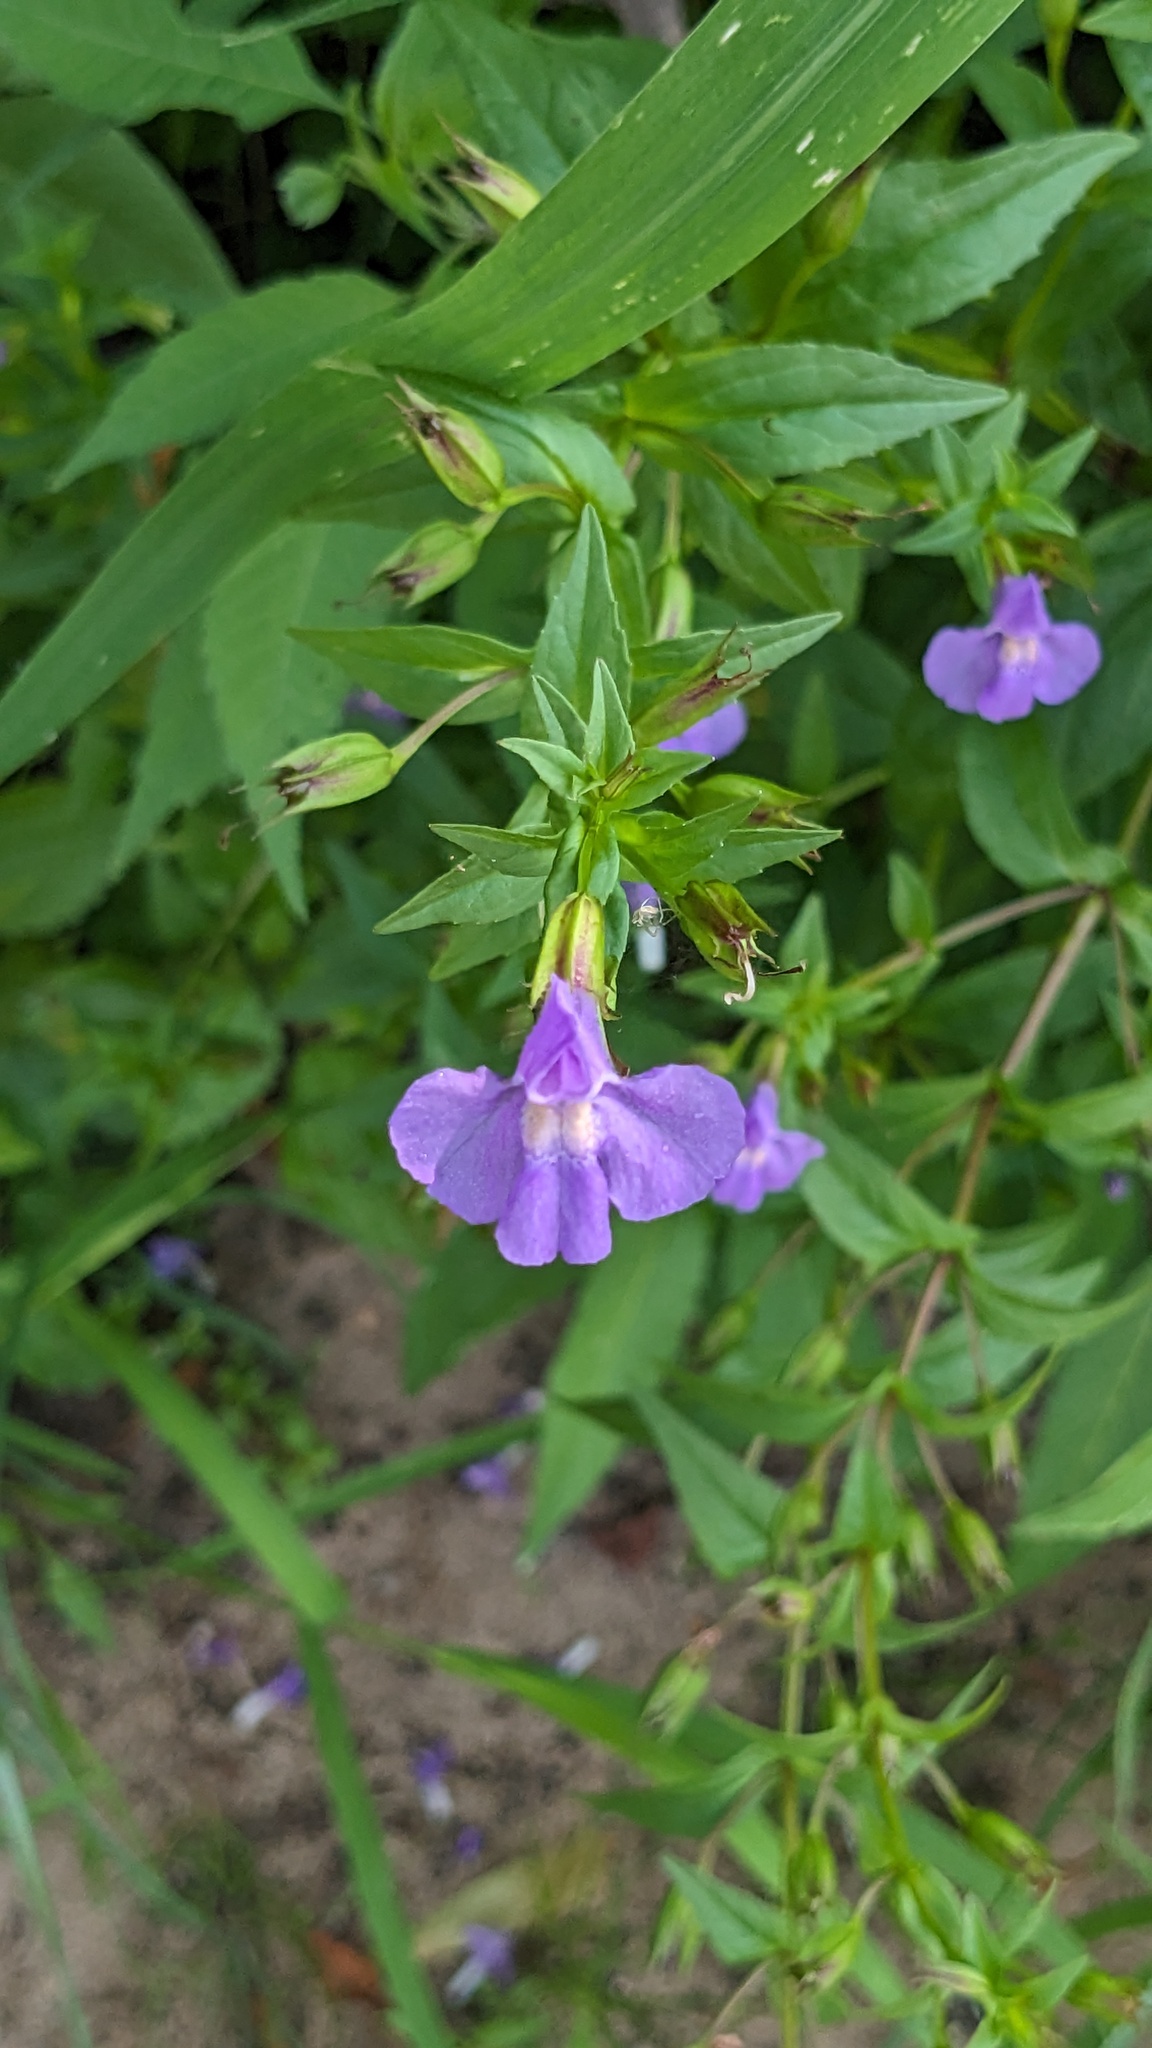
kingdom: Plantae
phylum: Tracheophyta
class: Magnoliopsida
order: Lamiales
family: Phrymaceae
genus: Mimulus
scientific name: Mimulus ringens
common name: Allegheny monkeyflower
